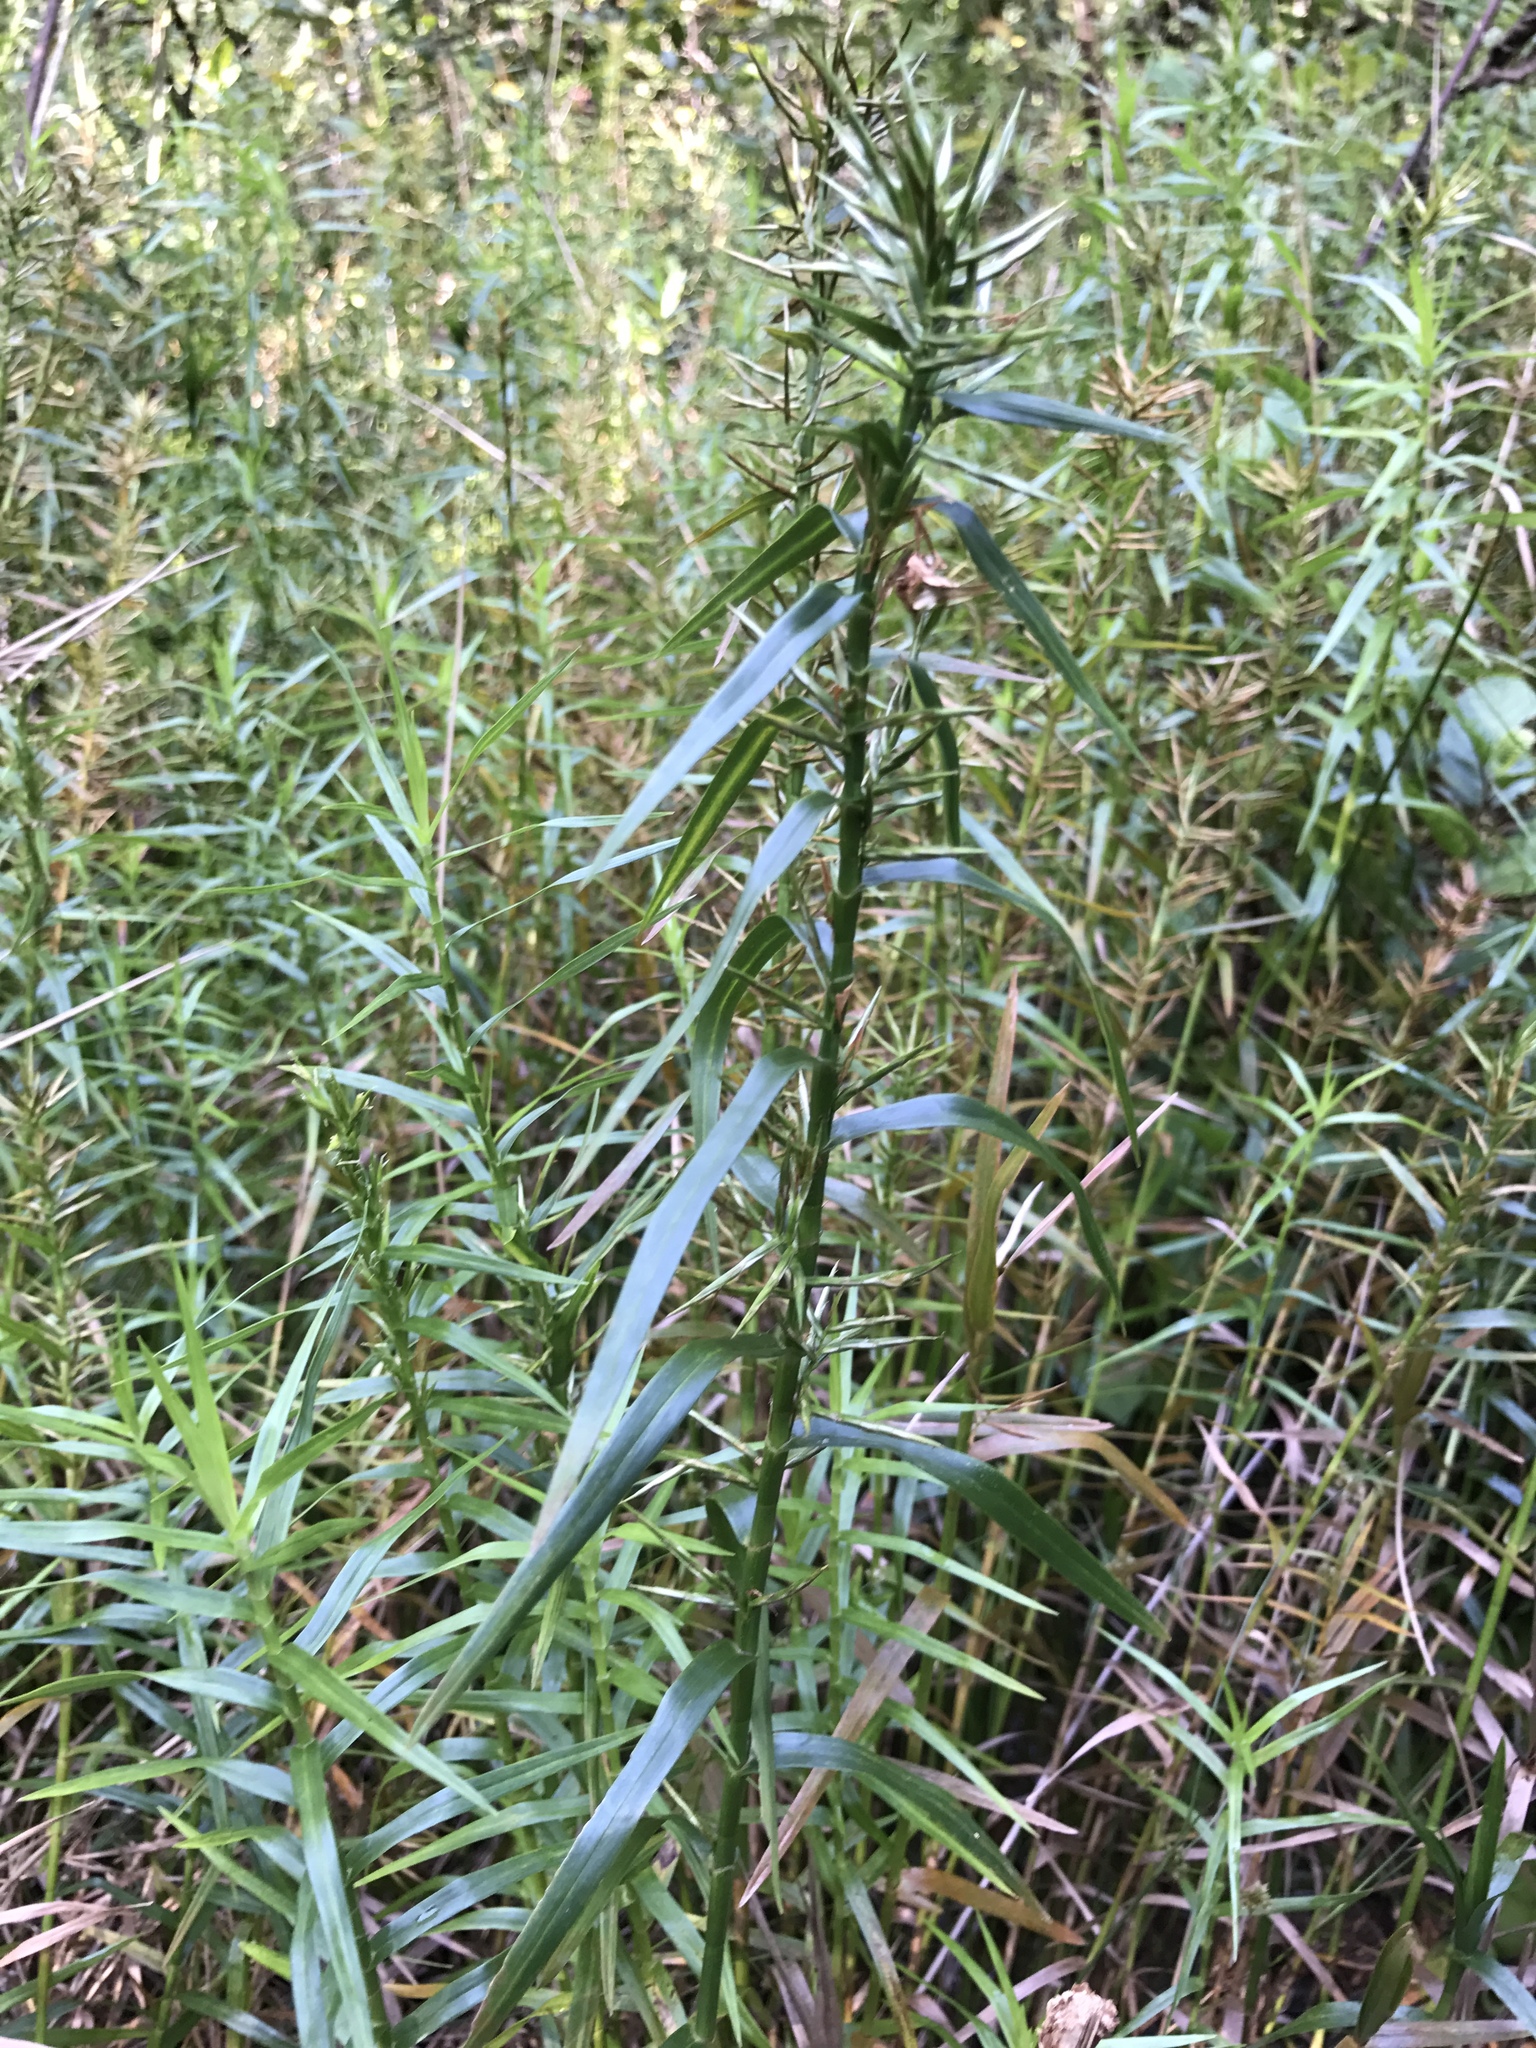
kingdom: Plantae
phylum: Tracheophyta
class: Liliopsida
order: Poales
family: Cyperaceae
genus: Dulichium
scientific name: Dulichium arundinaceum
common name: Three-way sedge
